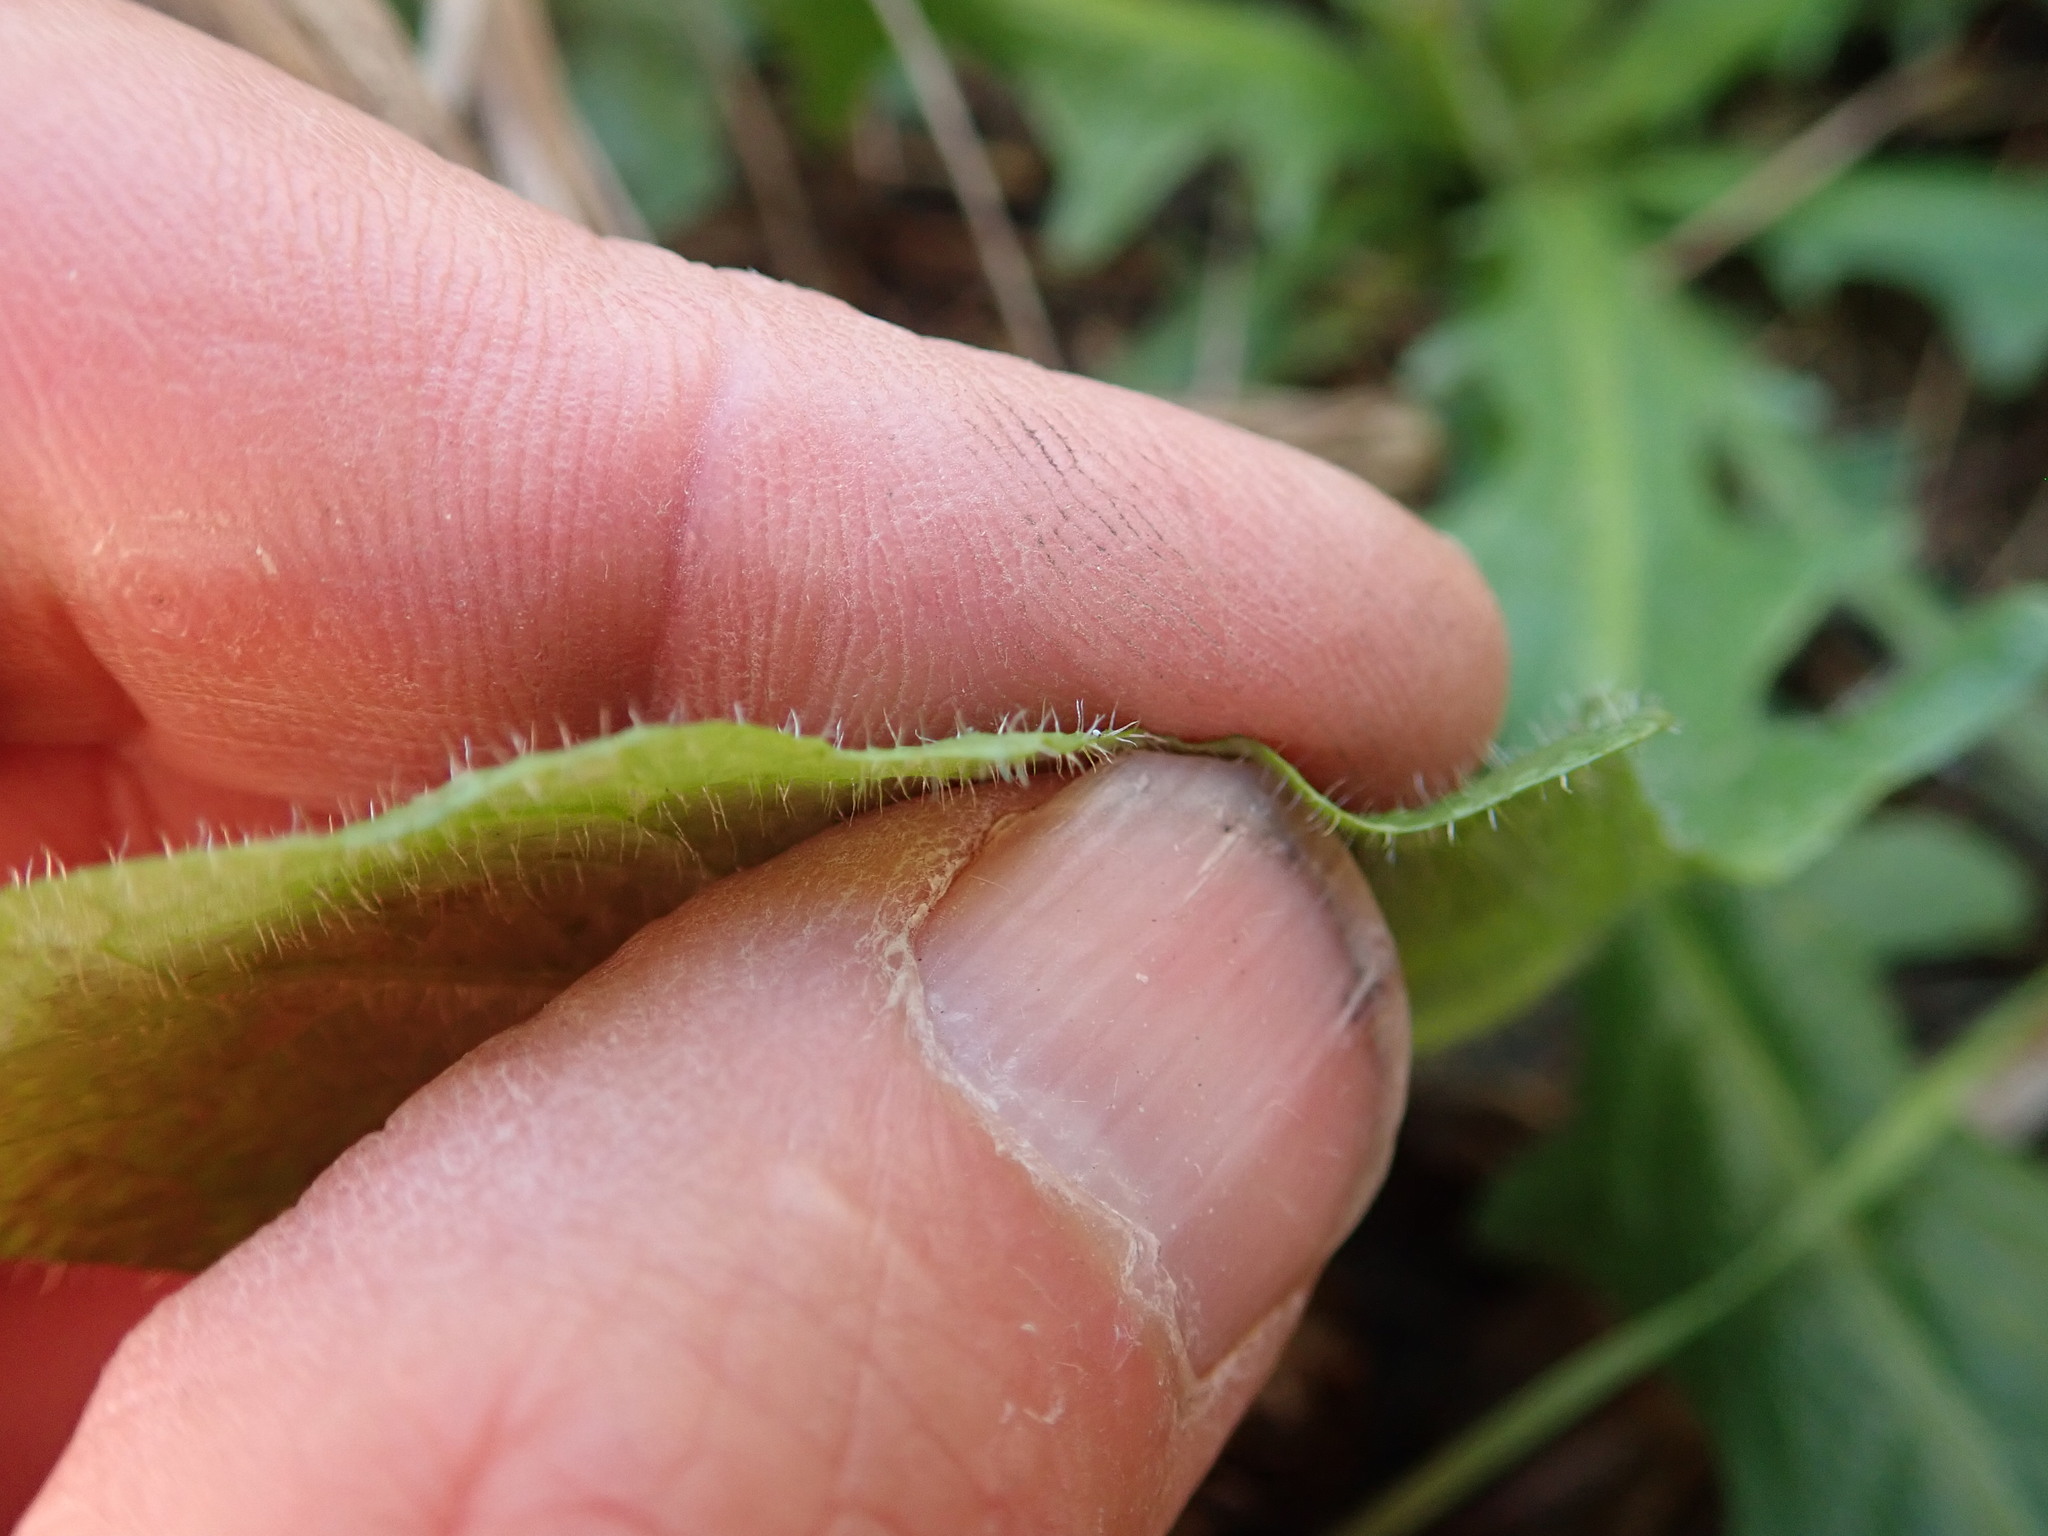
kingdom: Plantae
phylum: Tracheophyta
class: Magnoliopsida
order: Asterales
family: Asteraceae
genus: Hypochaeris
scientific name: Hypochaeris radicata
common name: Flatweed
